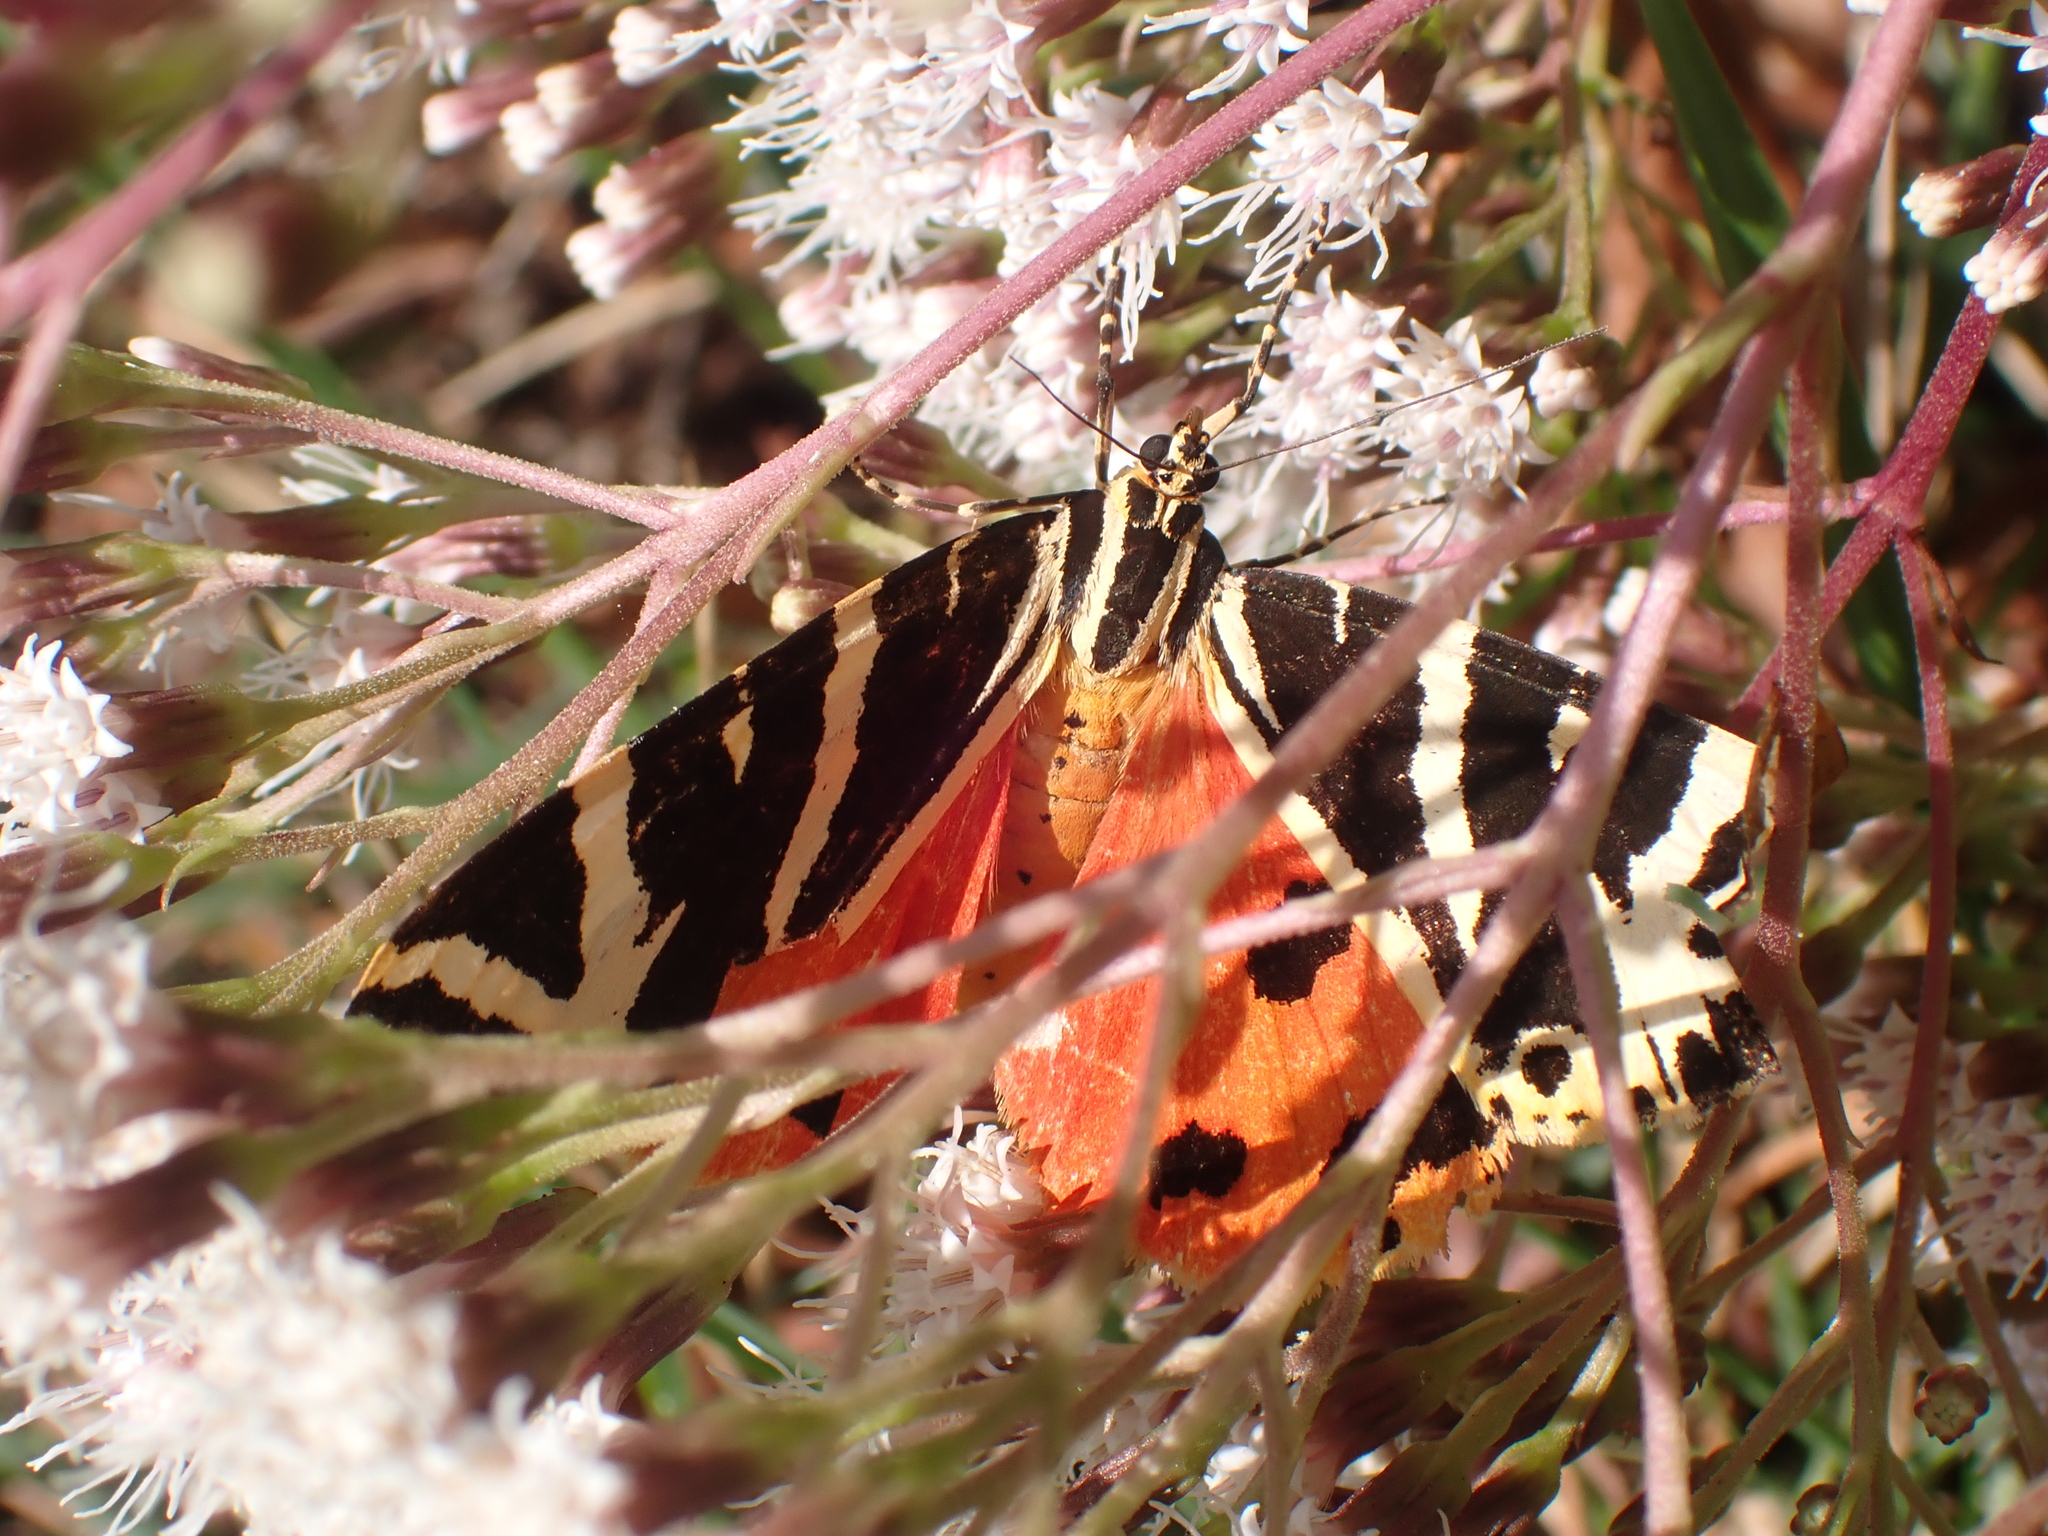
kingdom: Animalia
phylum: Arthropoda
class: Insecta
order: Lepidoptera
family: Erebidae
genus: Euplagia
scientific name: Euplagia quadripunctaria
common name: Jersey tiger
